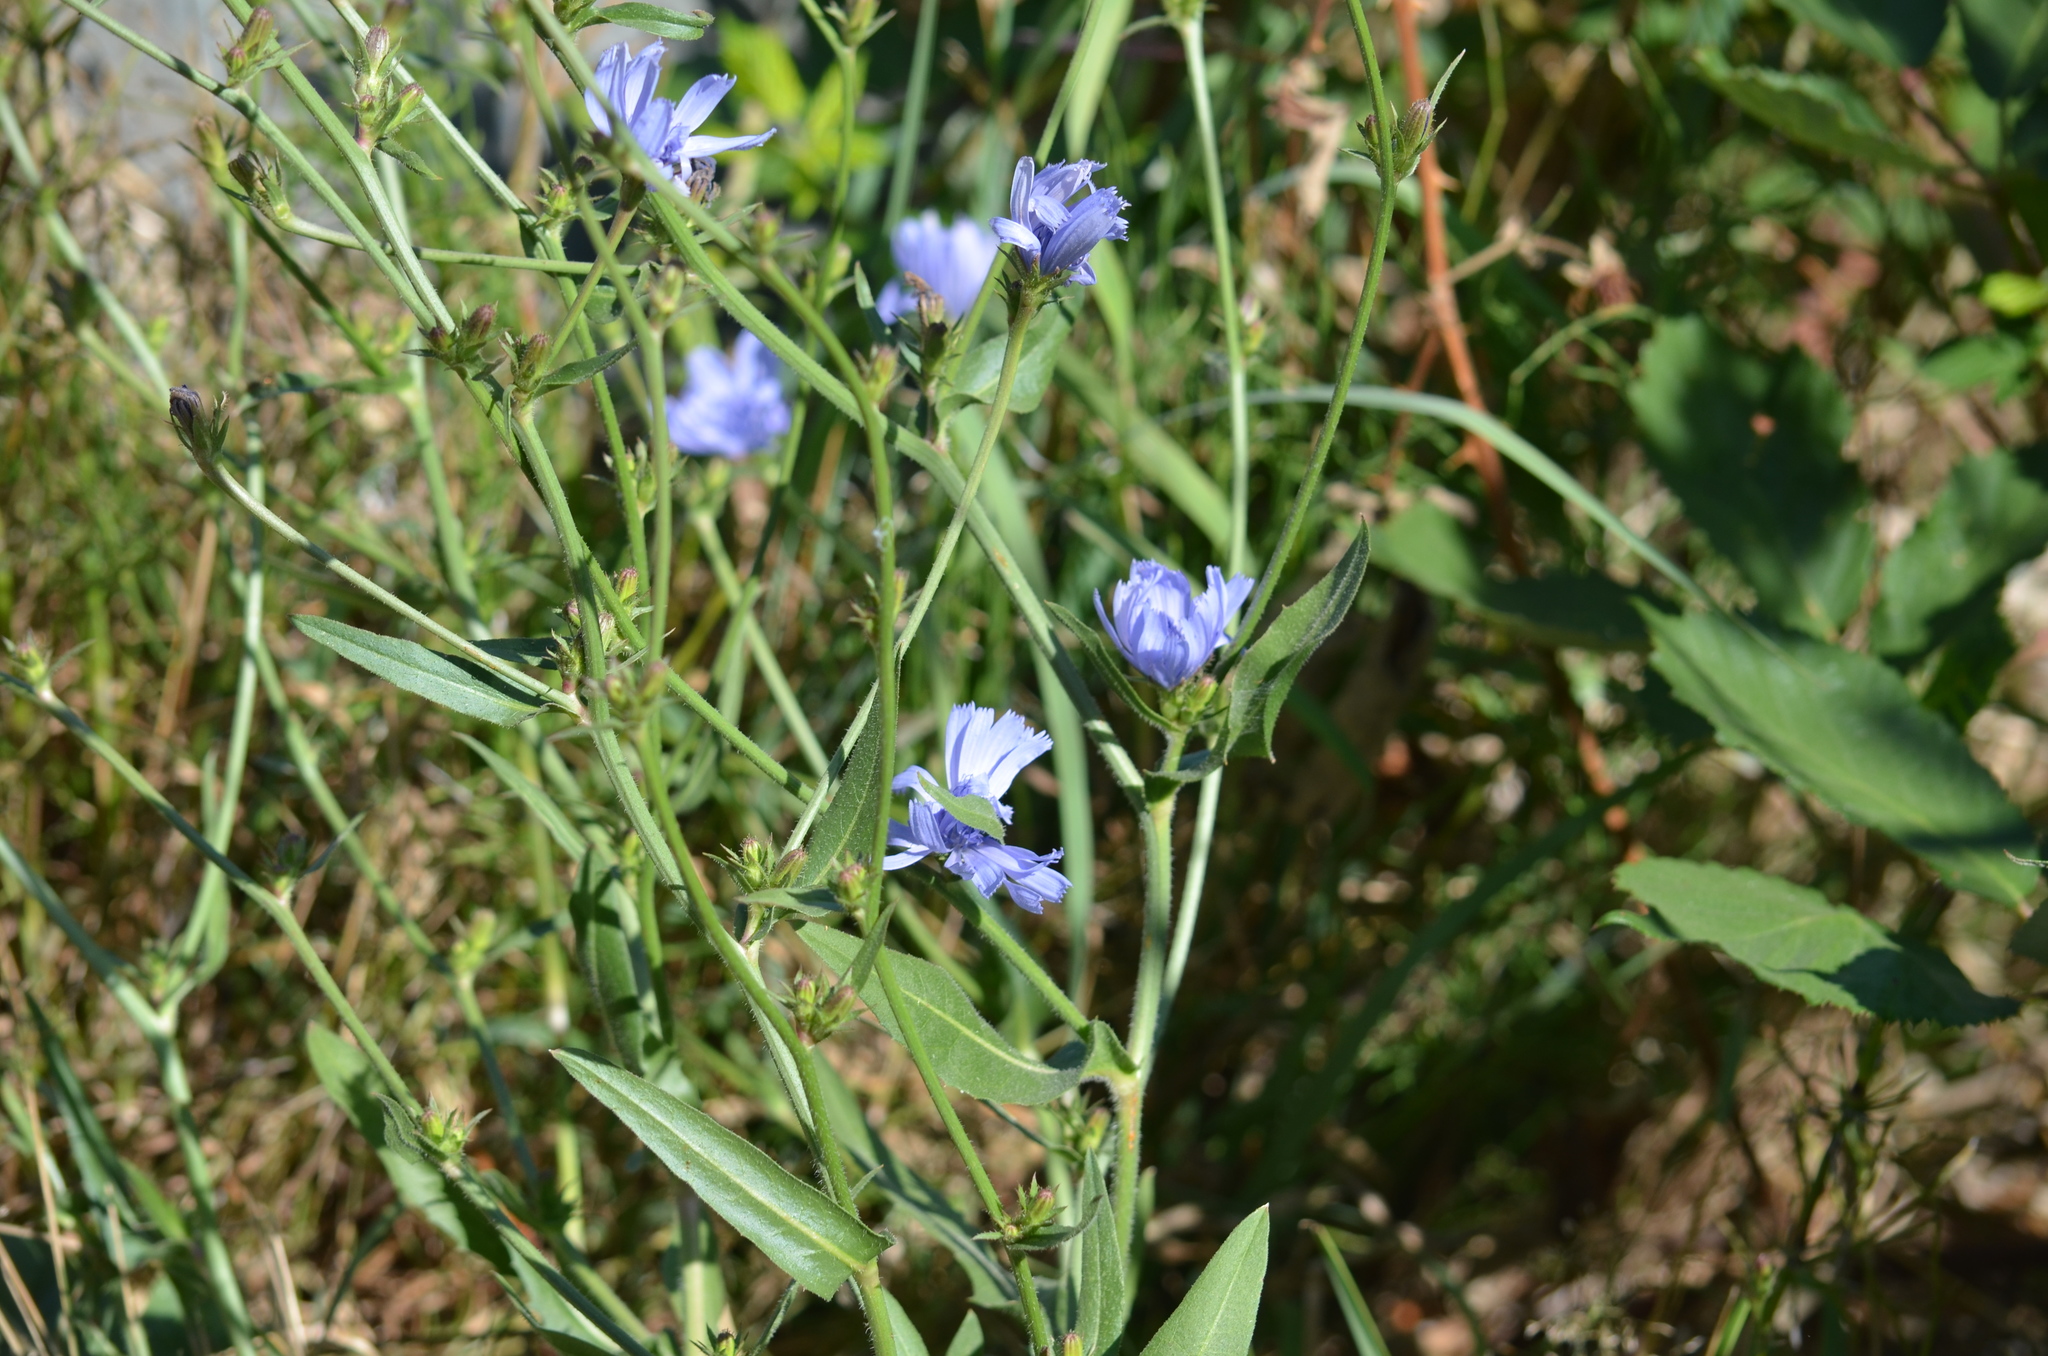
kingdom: Plantae
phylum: Tracheophyta
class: Magnoliopsida
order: Asterales
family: Asteraceae
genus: Cichorium
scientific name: Cichorium intybus
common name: Chicory
